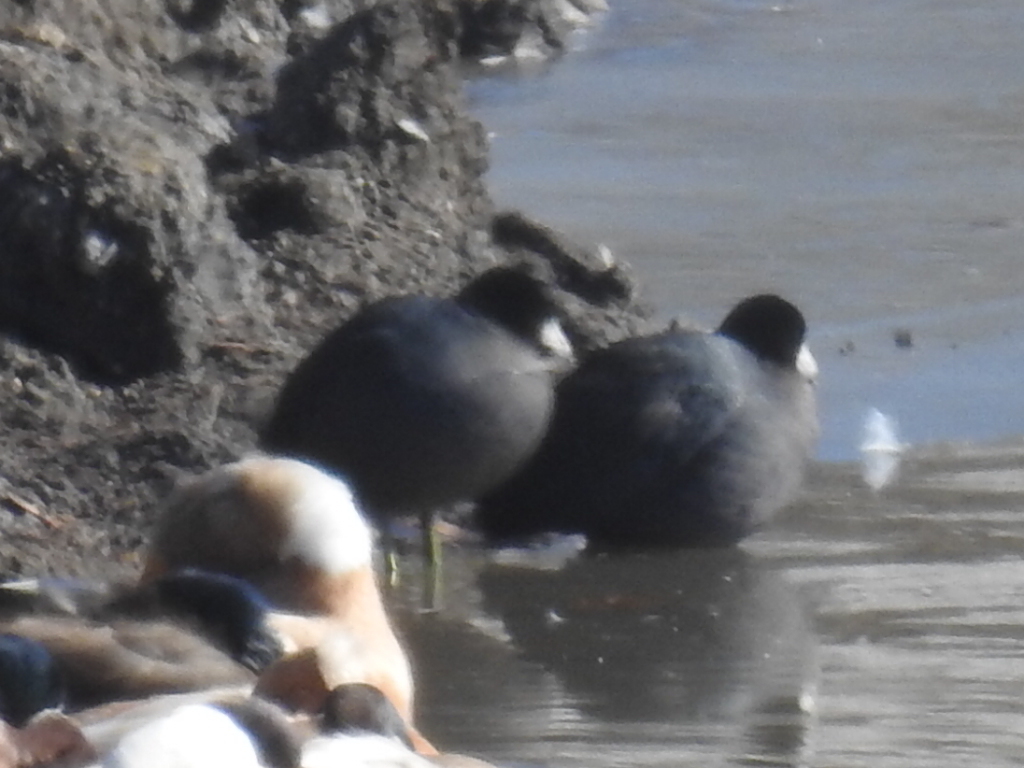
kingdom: Animalia
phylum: Chordata
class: Aves
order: Gruiformes
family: Rallidae
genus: Fulica
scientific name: Fulica americana
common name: American coot
